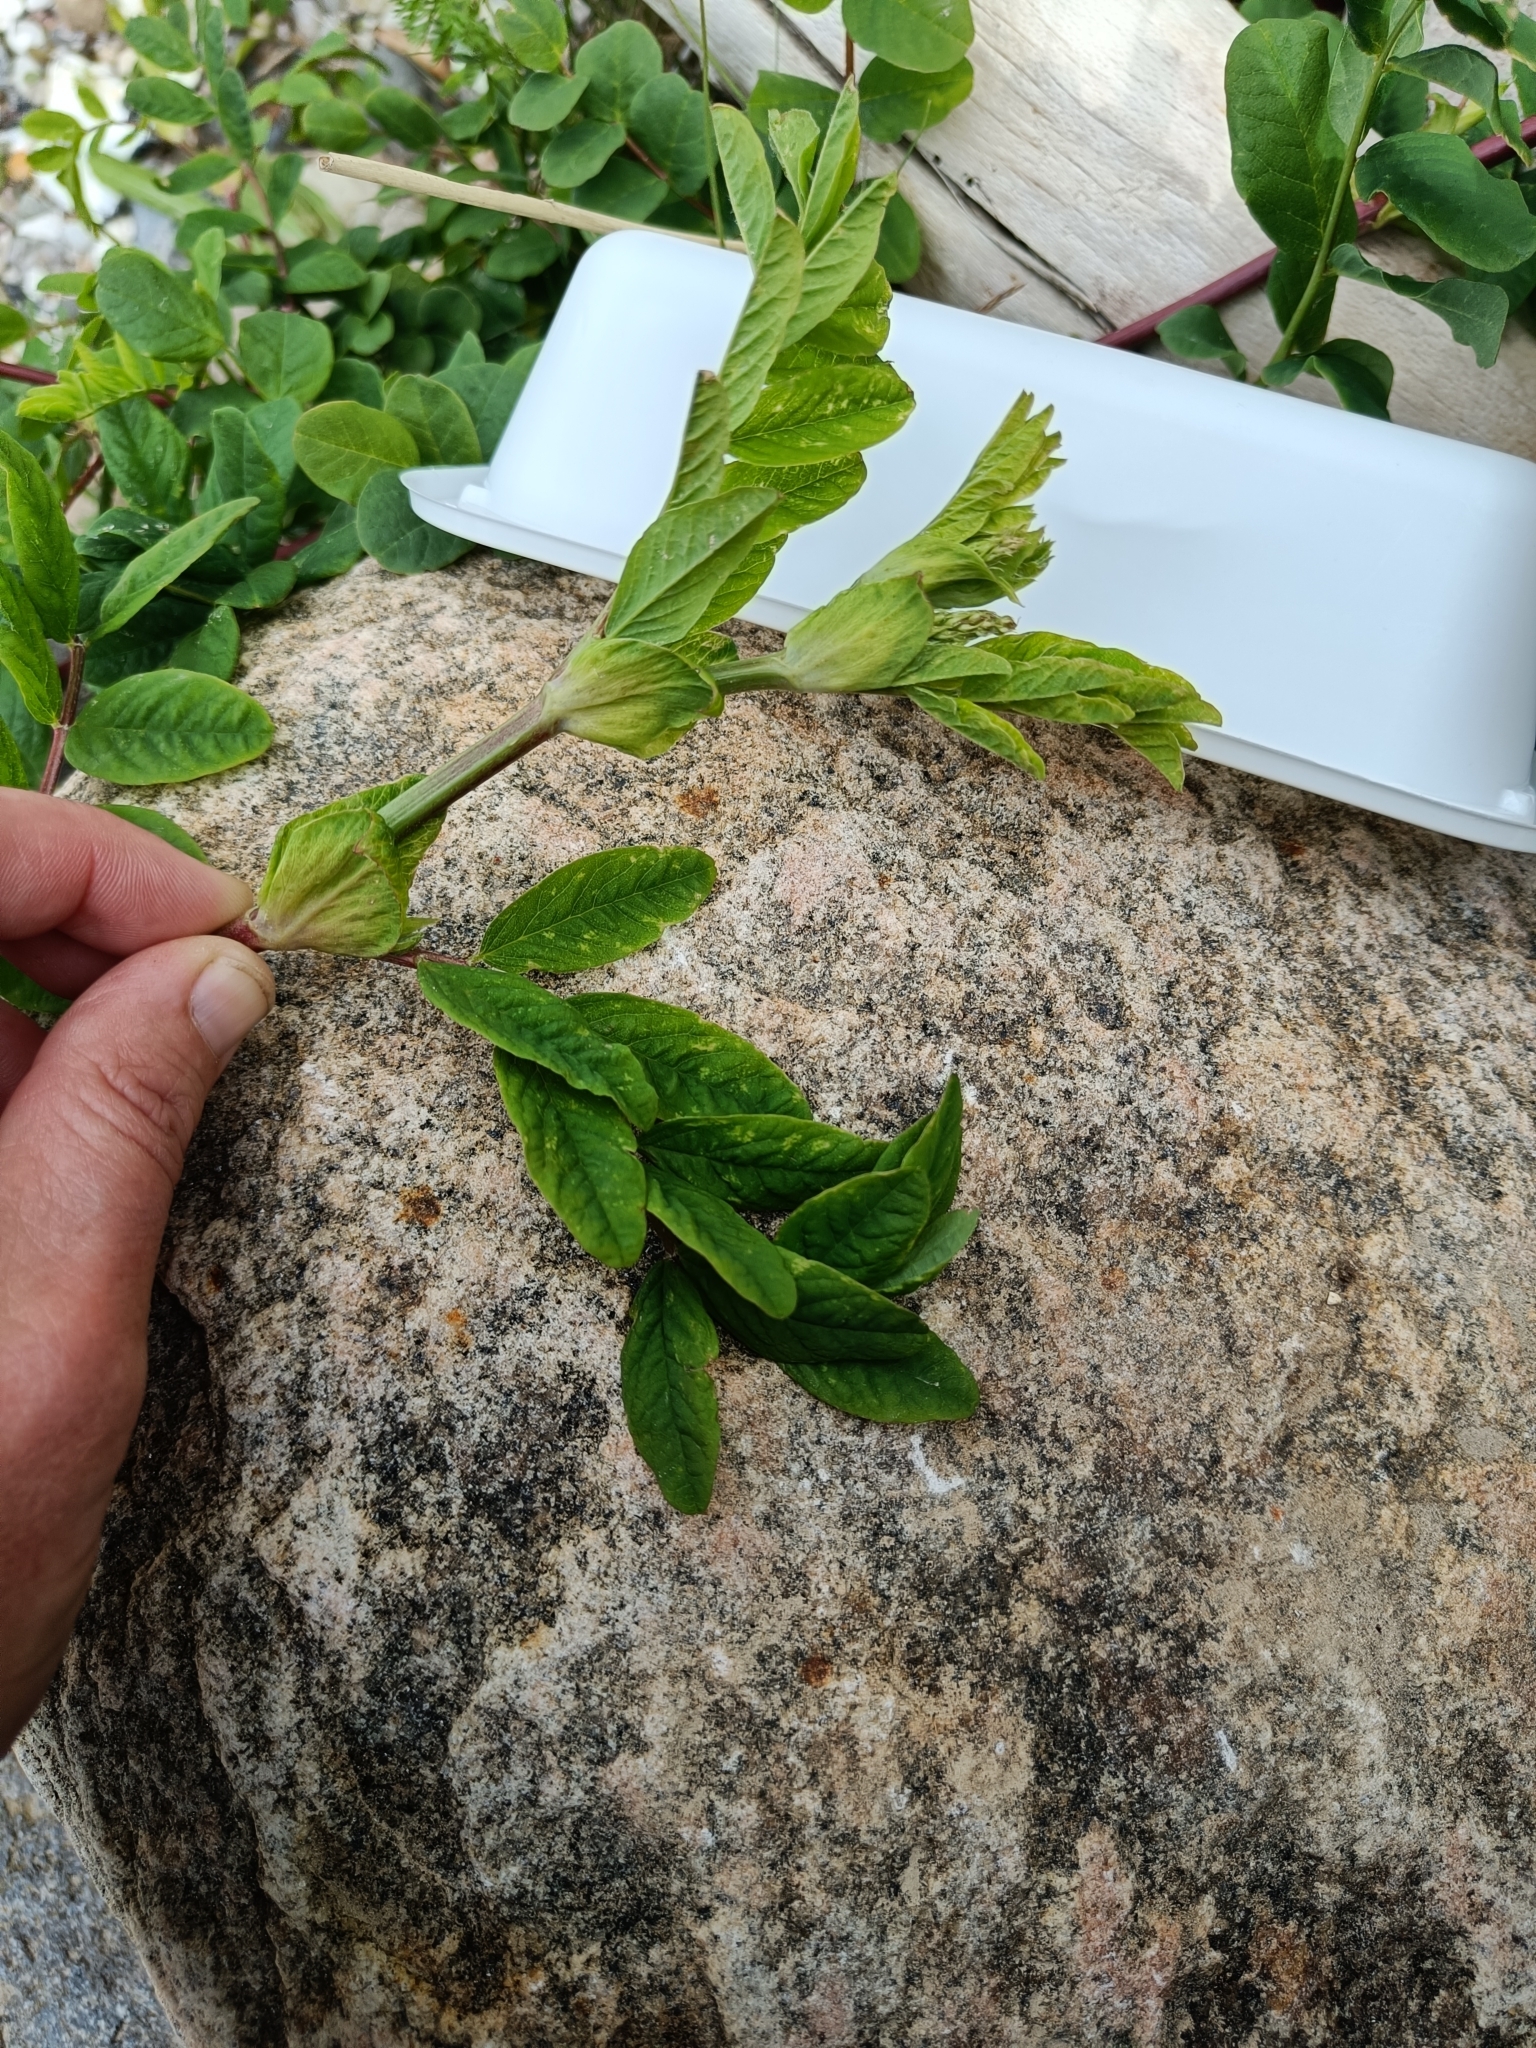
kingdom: Plantae
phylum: Tracheophyta
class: Magnoliopsida
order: Fabales
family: Fabaceae
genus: Astragalus
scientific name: Astragalus glycyphyllos
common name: Wild liquorice
